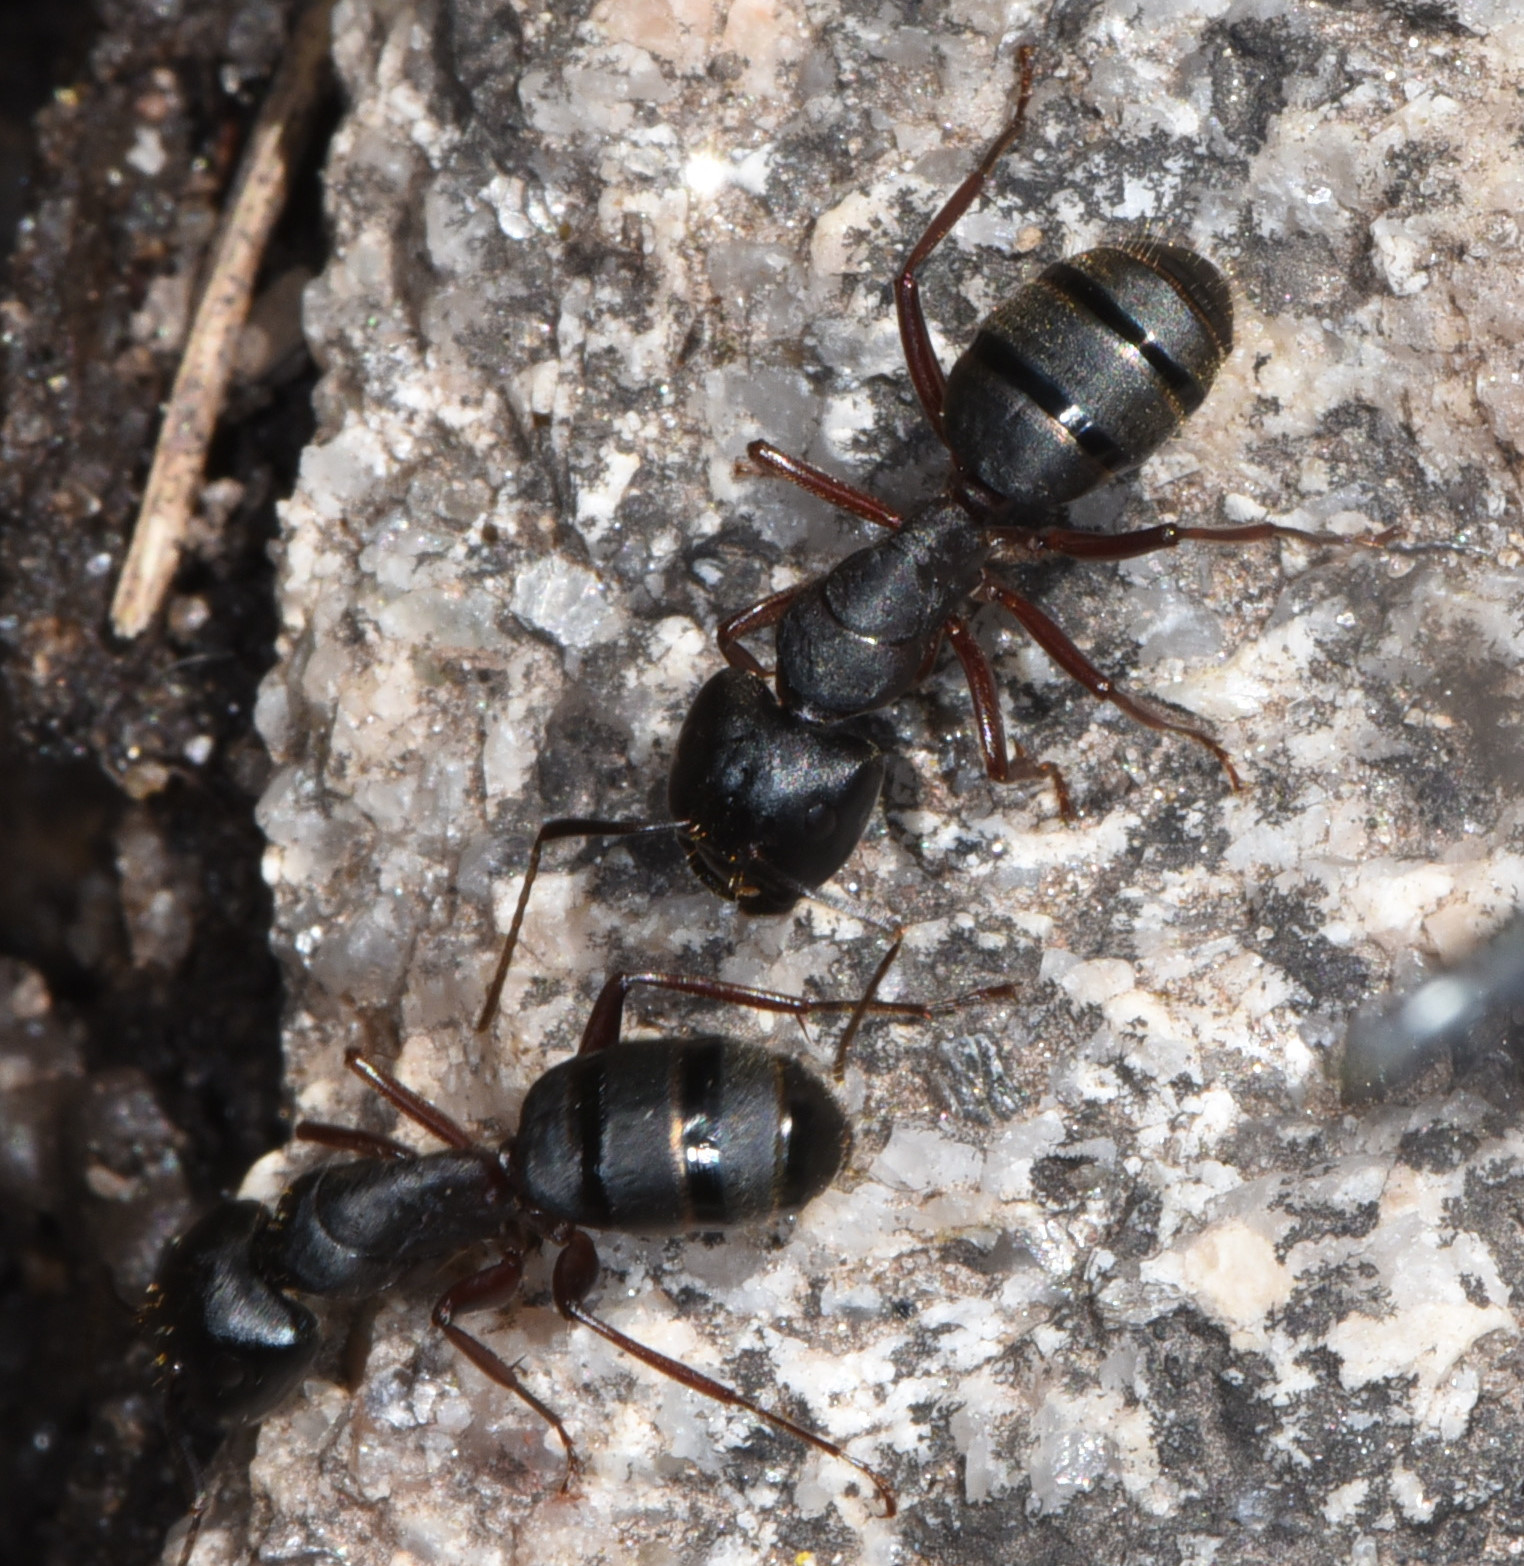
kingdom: Animalia
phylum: Arthropoda
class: Insecta
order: Hymenoptera
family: Formicidae
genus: Camponotus
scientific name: Camponotus modoc
